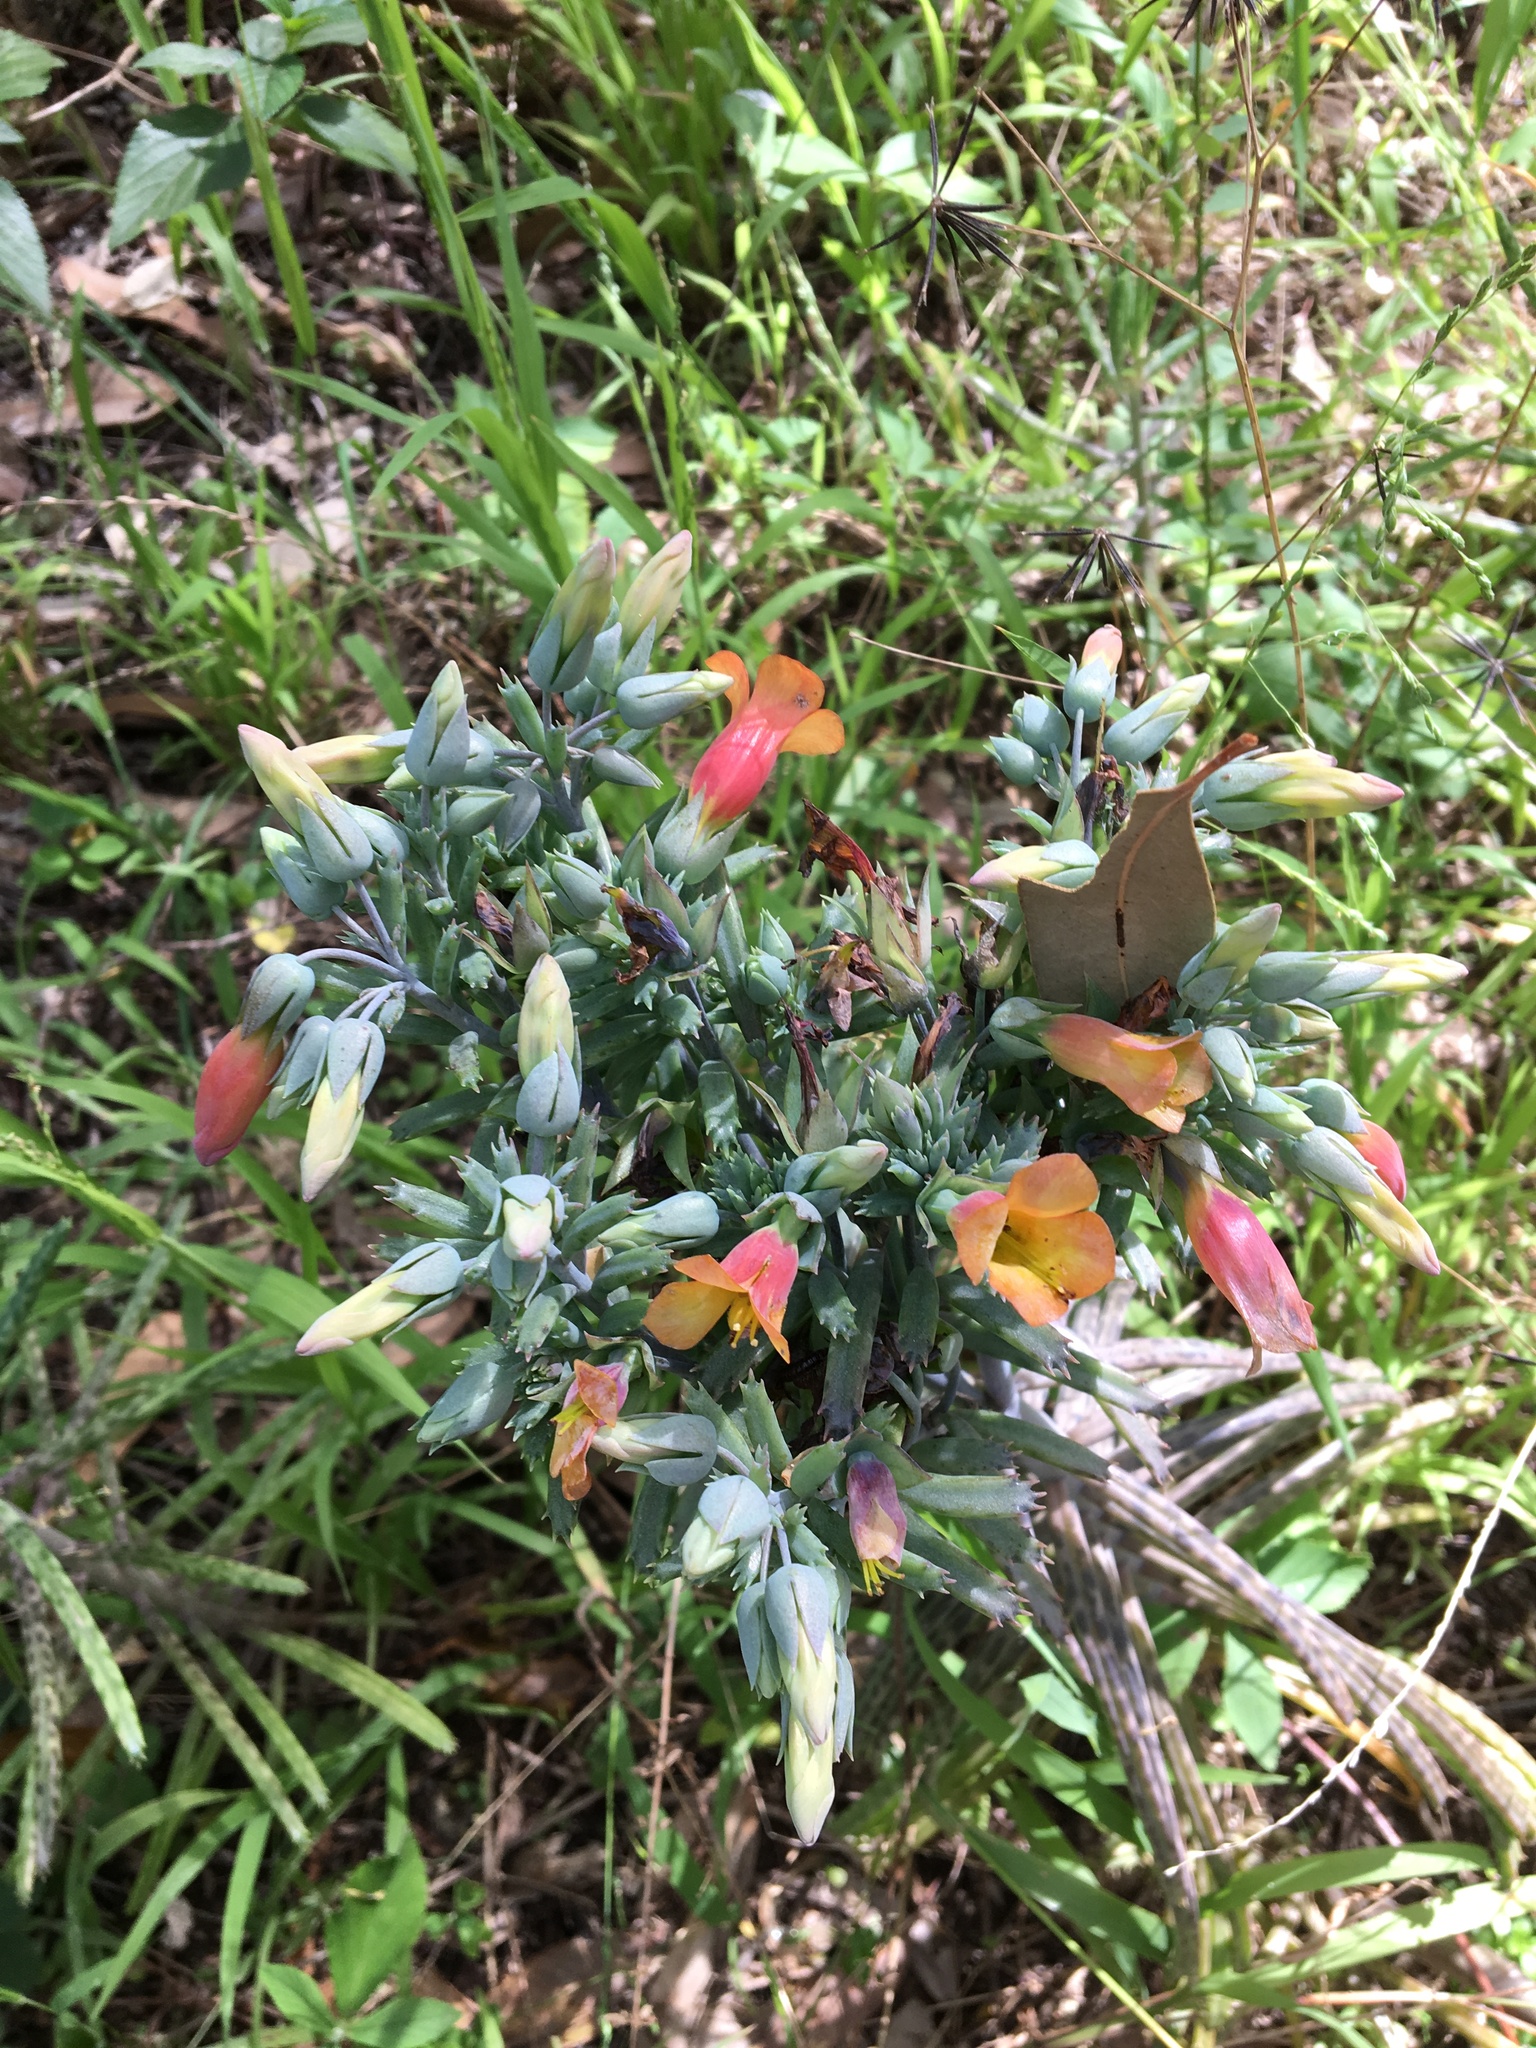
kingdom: Plantae
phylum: Tracheophyta
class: Magnoliopsida
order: Saxifragales
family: Crassulaceae
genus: Kalanchoe
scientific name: Kalanchoe delagoensis
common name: Chandelier plant
